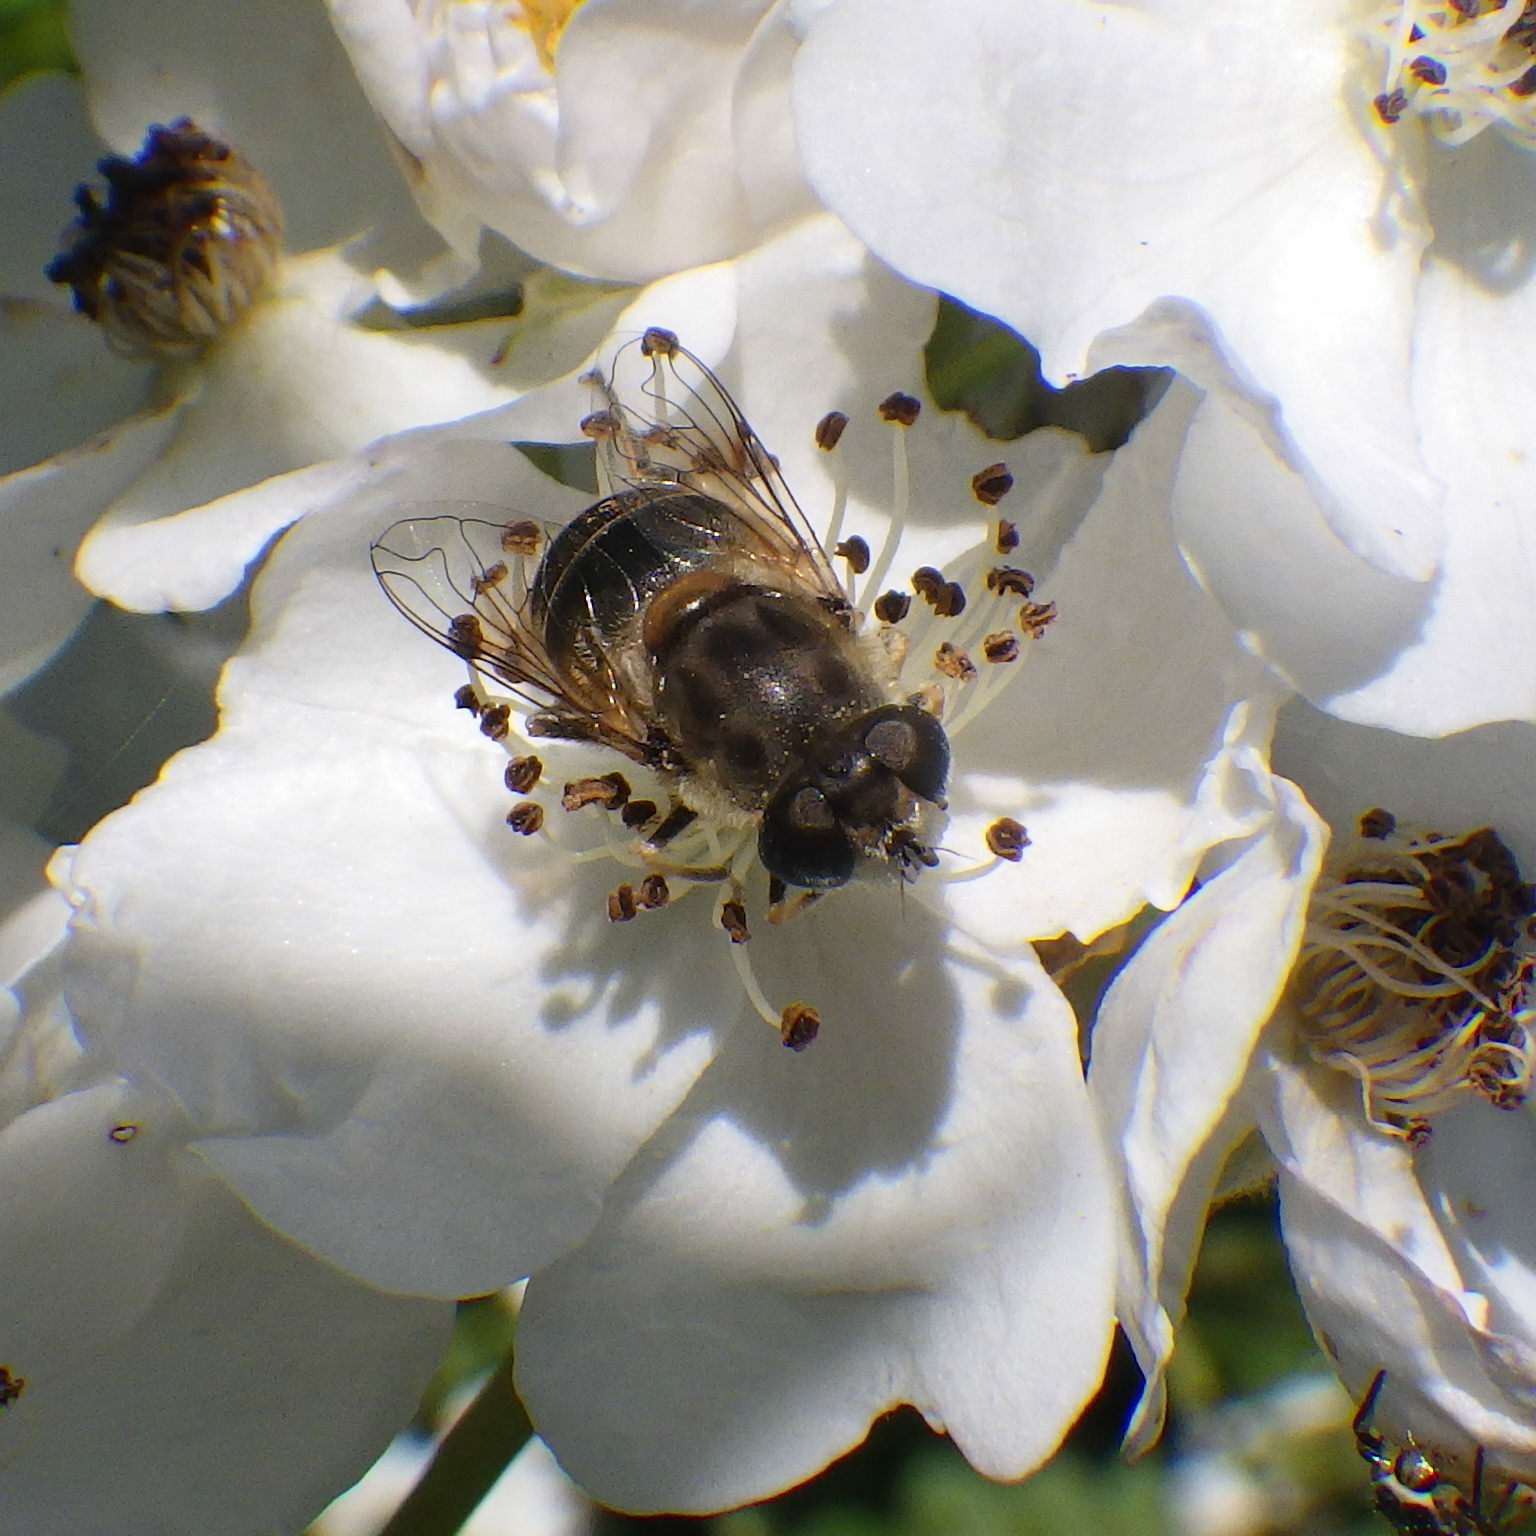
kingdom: Animalia
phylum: Arthropoda
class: Insecta
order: Diptera
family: Syrphidae
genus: Eristalis
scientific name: Eristalis arbustorum
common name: Hover fly
